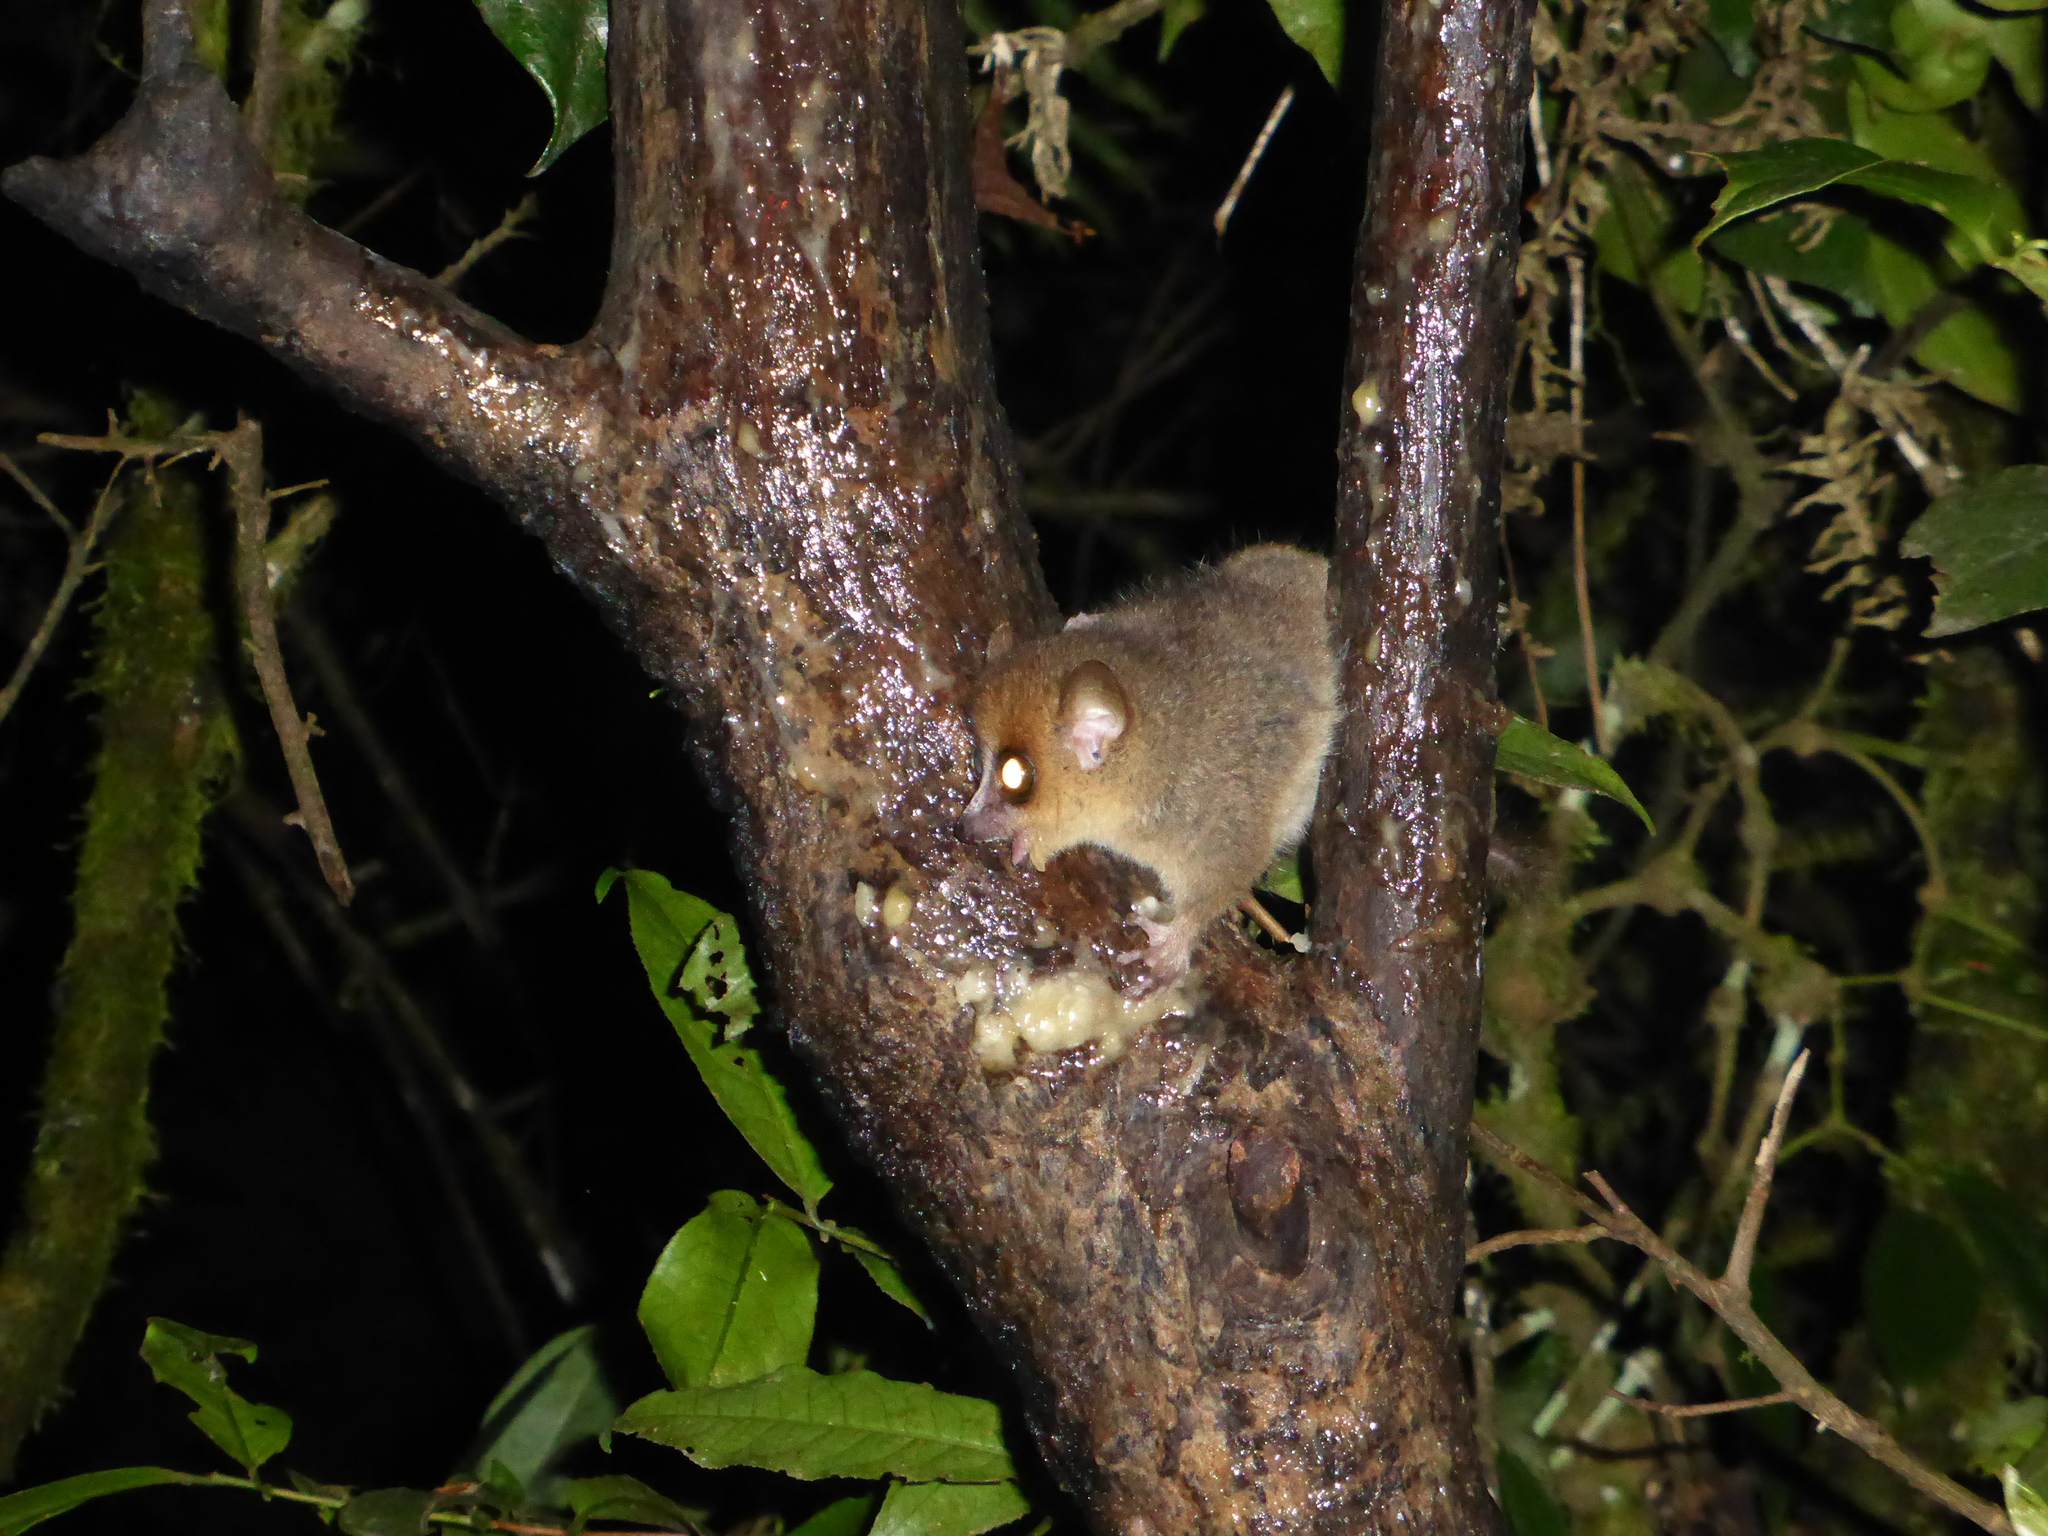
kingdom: Animalia
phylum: Chordata
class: Mammalia
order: Primates
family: Cheirogaleidae
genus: Microcebus
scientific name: Microcebus rufus
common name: Brown mouse lemur
